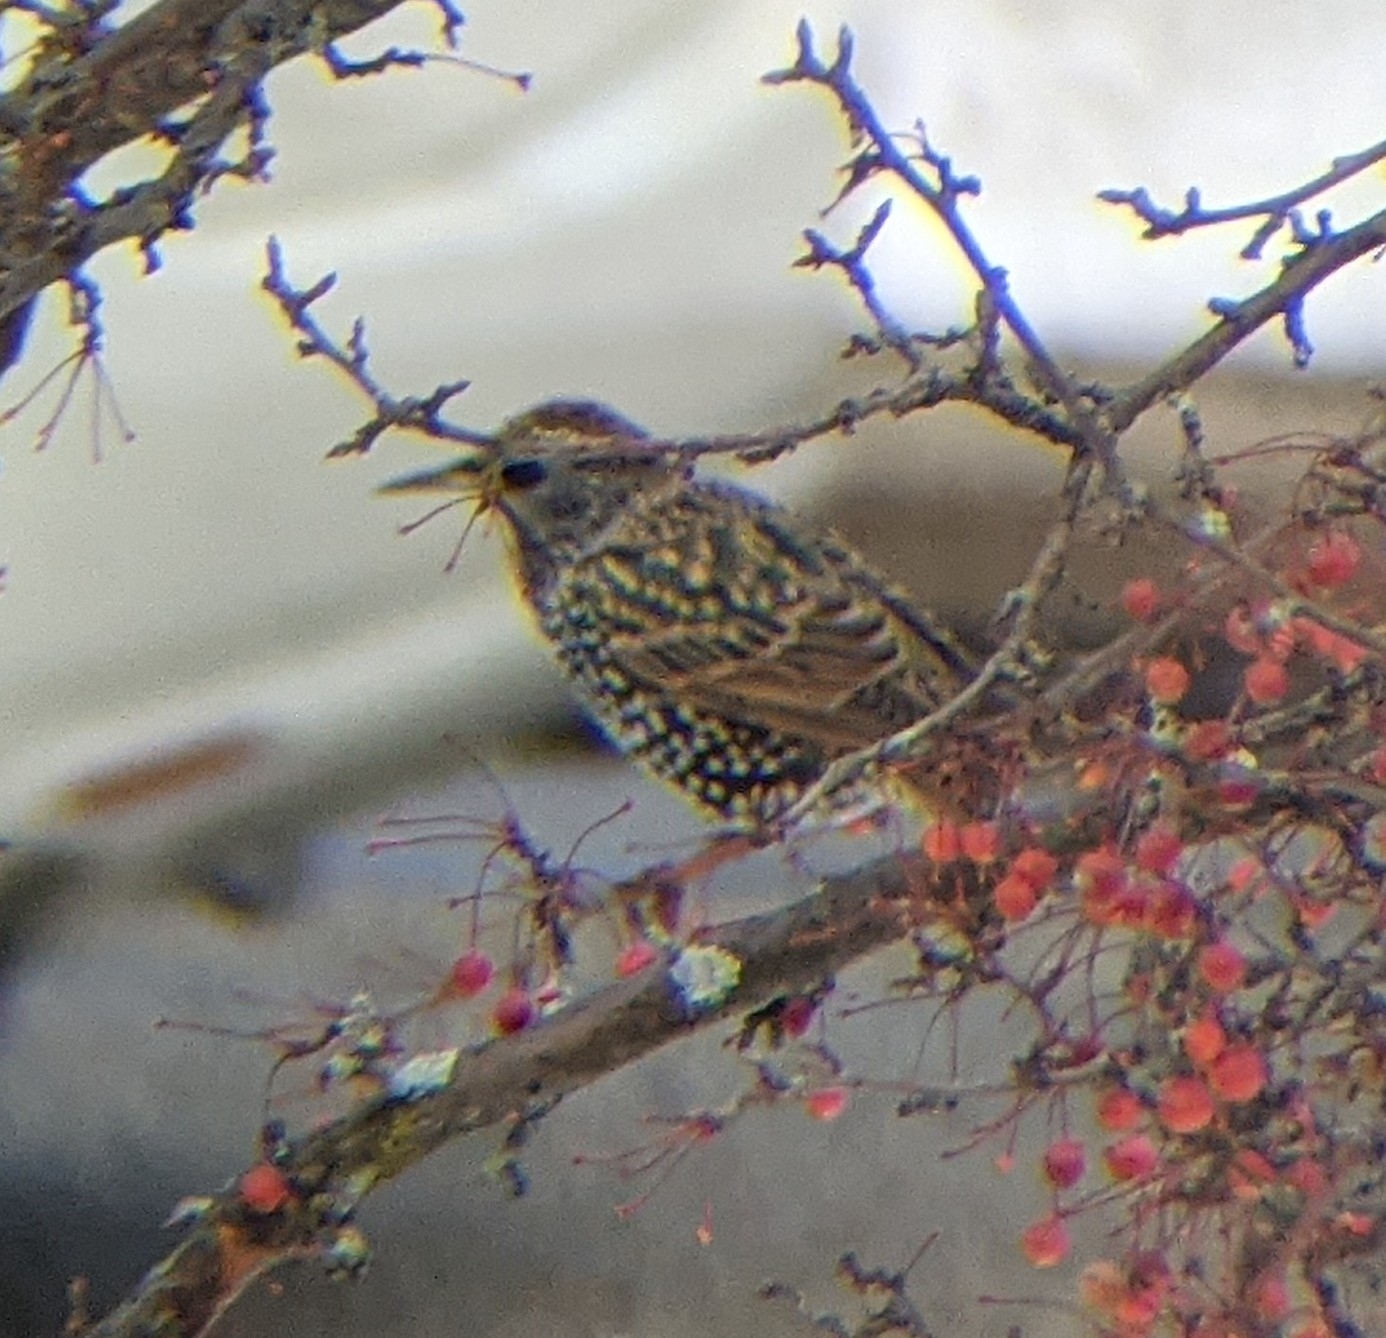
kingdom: Animalia
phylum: Chordata
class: Aves
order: Passeriformes
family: Sturnidae
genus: Sturnus
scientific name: Sturnus vulgaris
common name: Common starling
